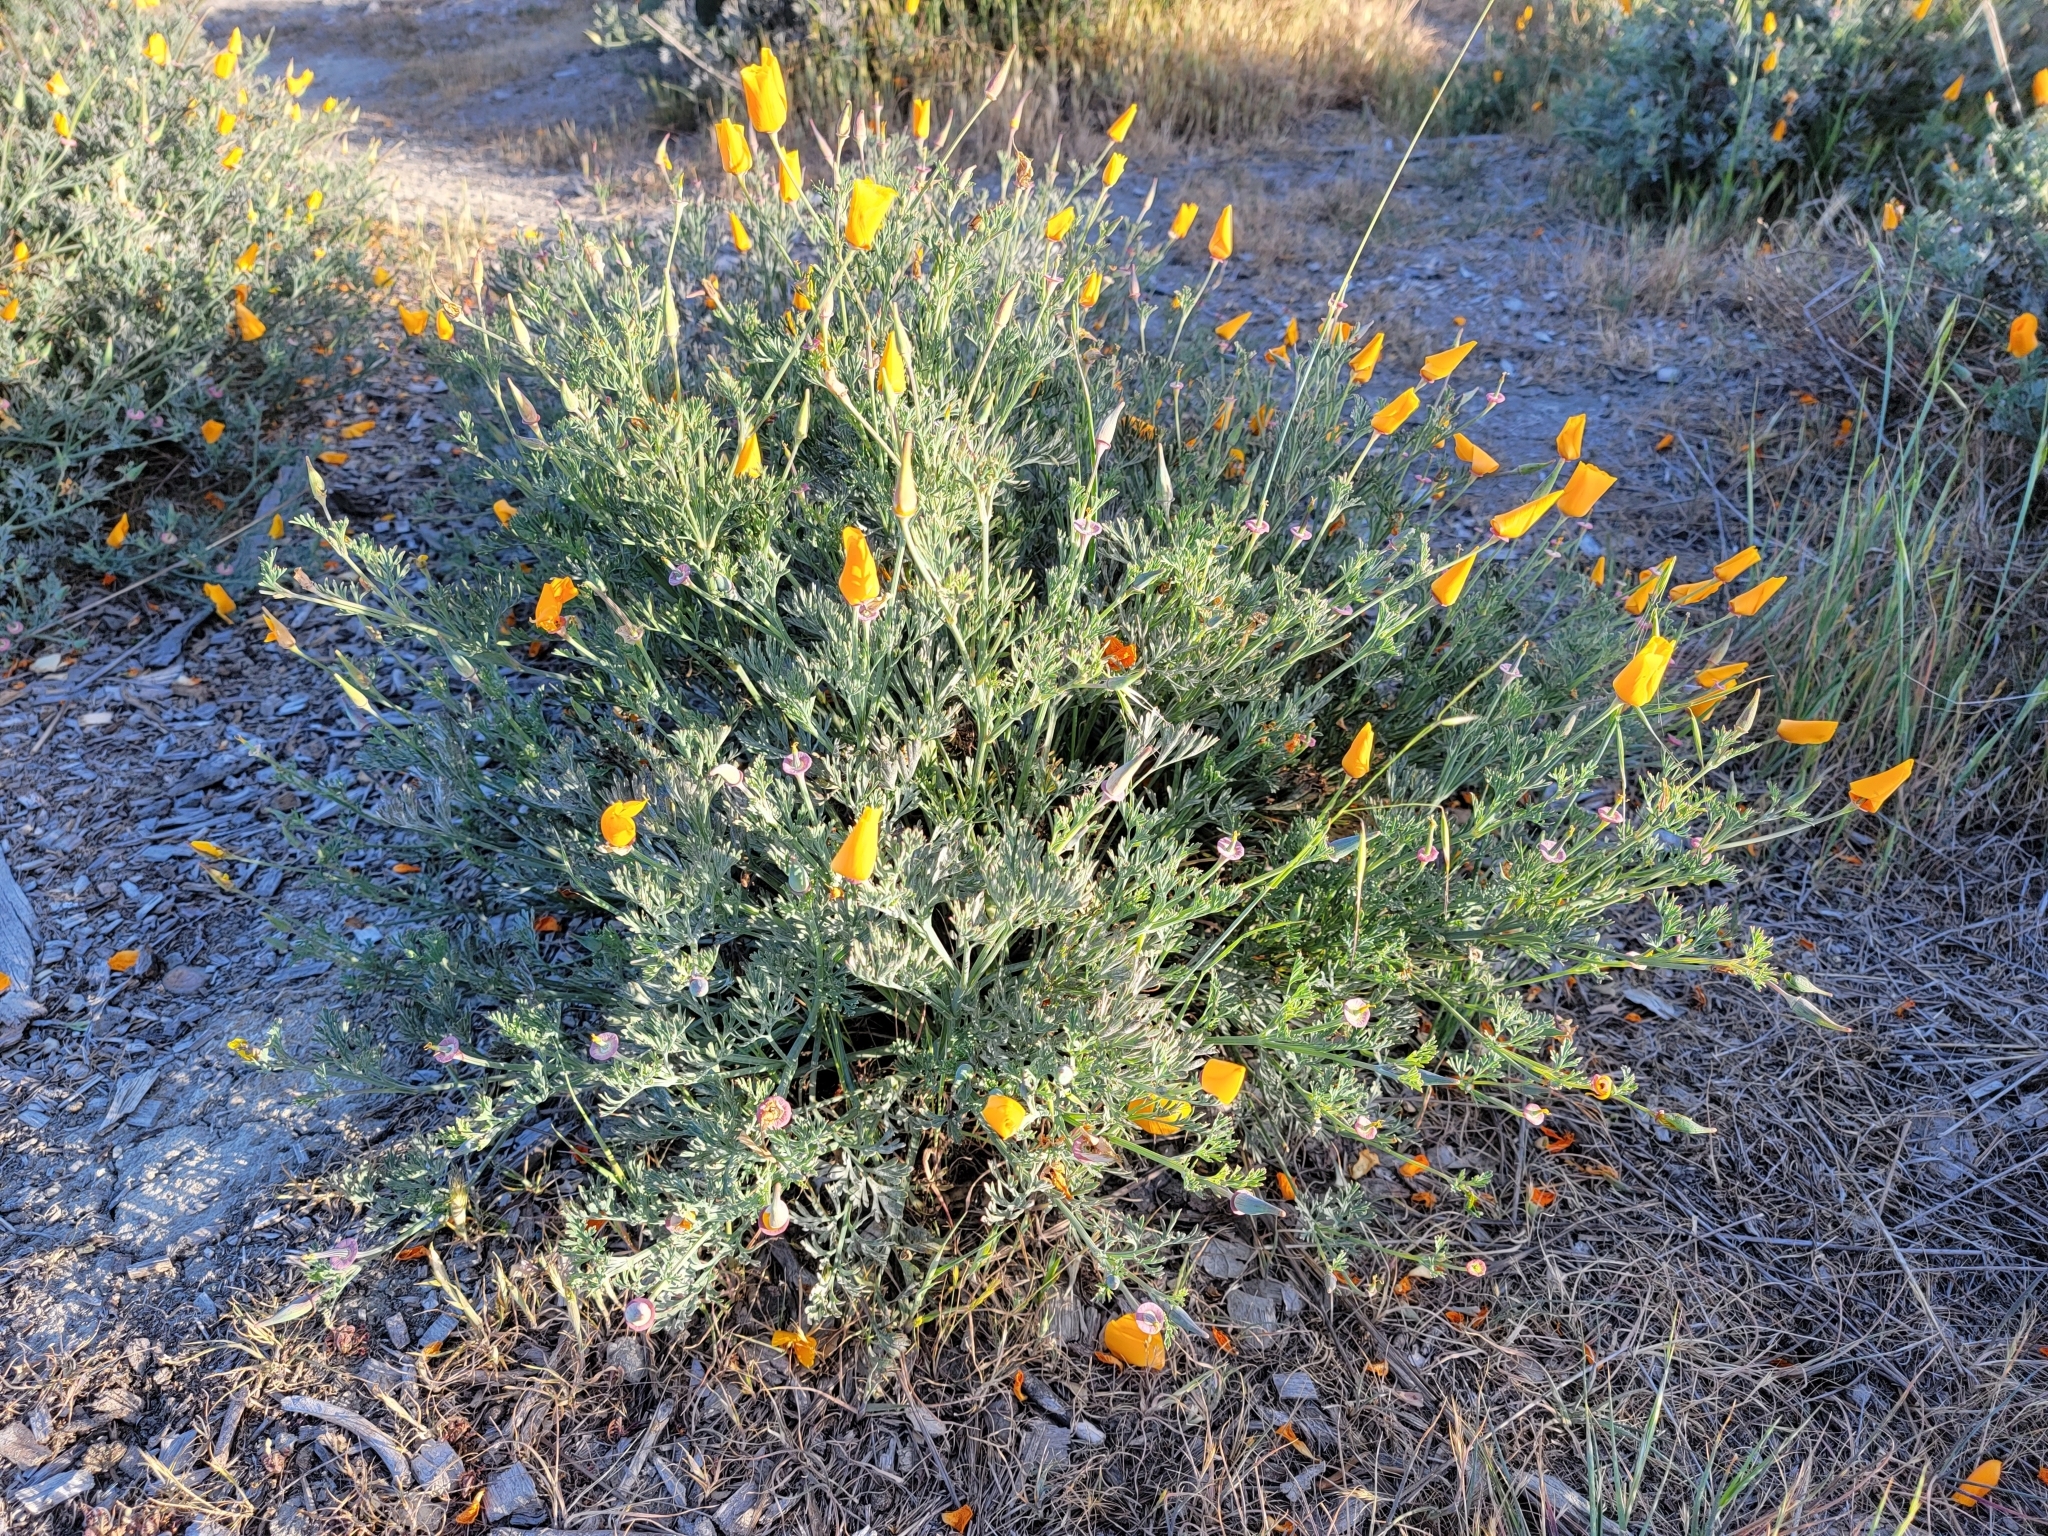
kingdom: Plantae
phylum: Tracheophyta
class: Magnoliopsida
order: Ranunculales
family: Papaveraceae
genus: Eschscholzia
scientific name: Eschscholzia californica
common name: California poppy
